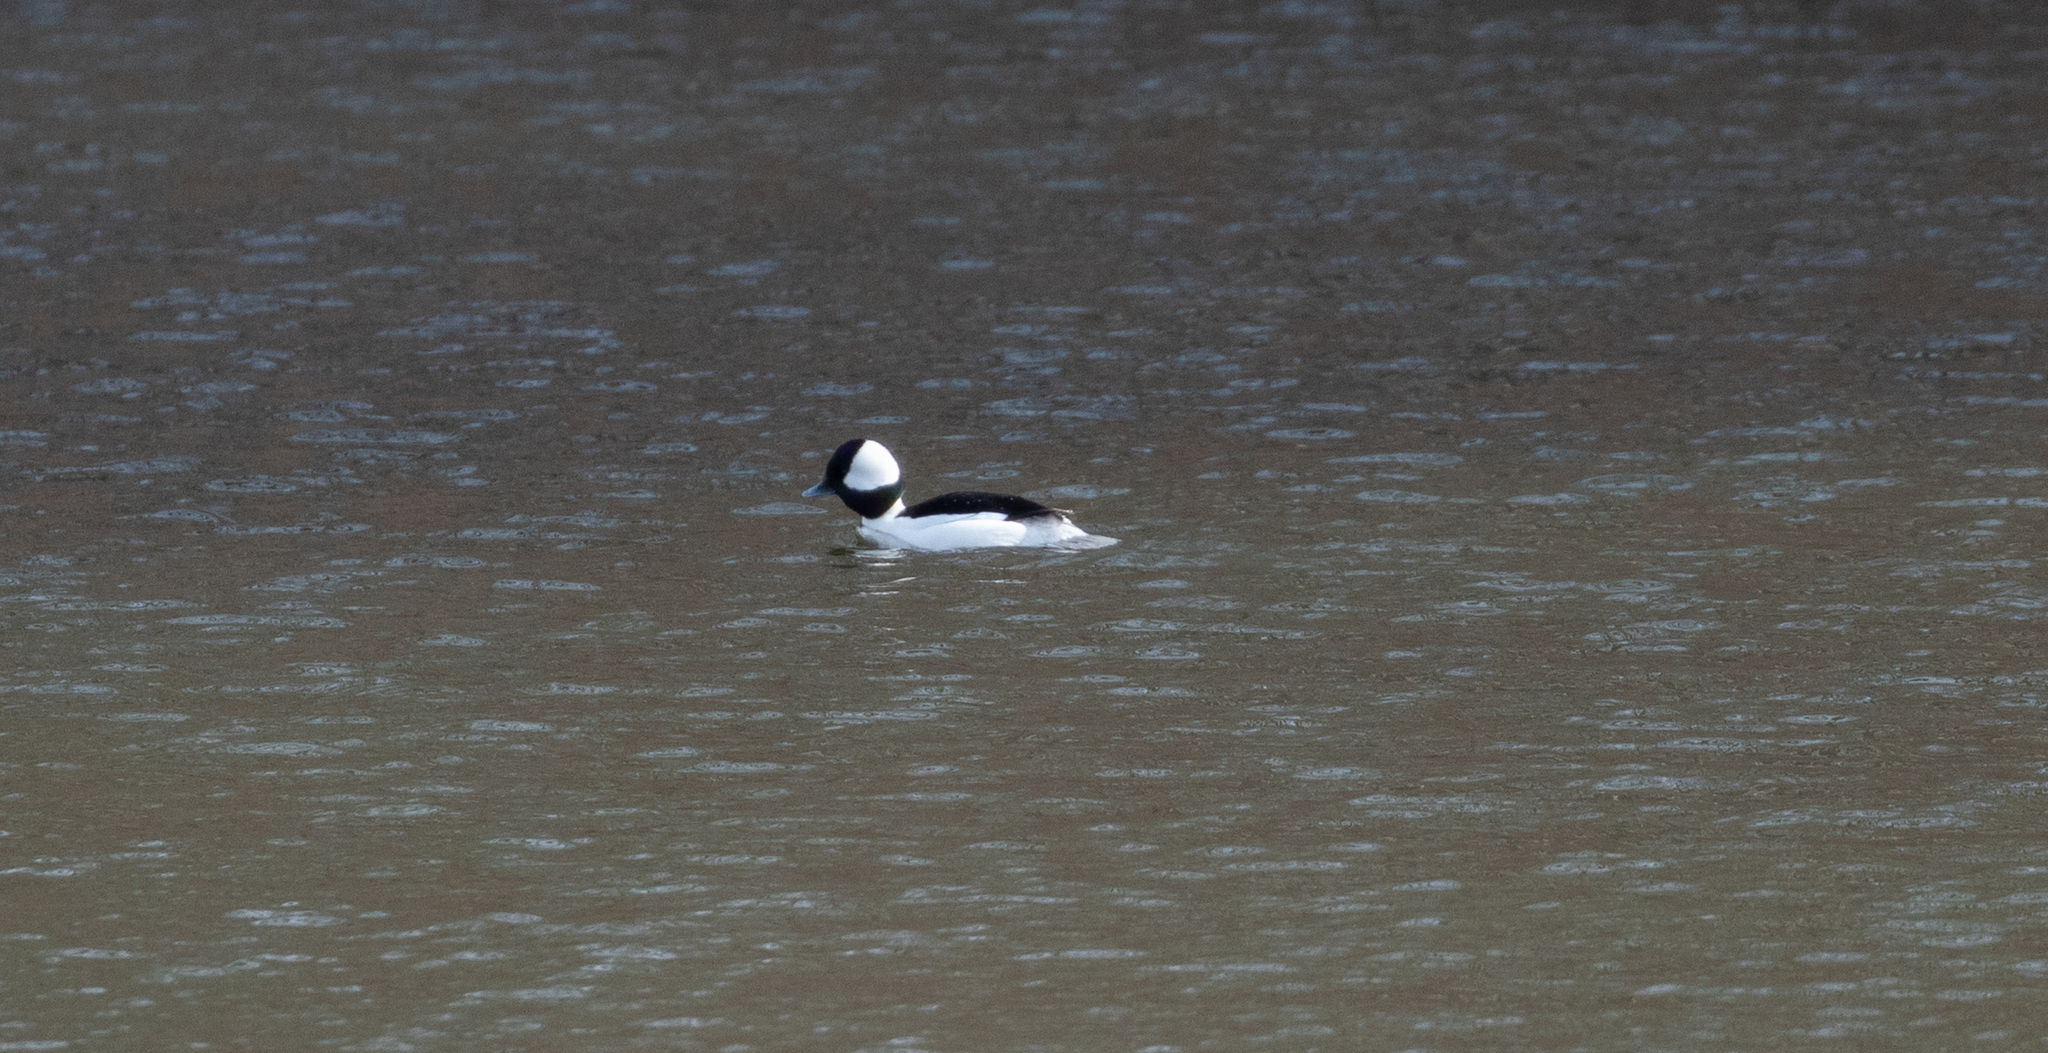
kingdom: Animalia
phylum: Chordata
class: Aves
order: Anseriformes
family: Anatidae
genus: Bucephala
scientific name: Bucephala albeola
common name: Bufflehead
